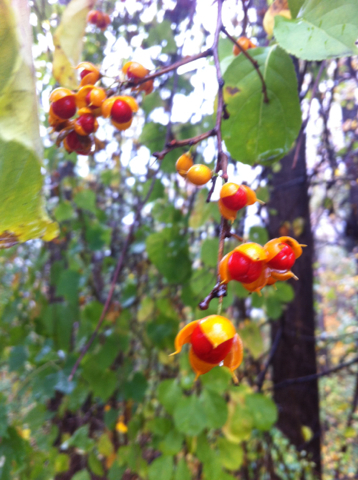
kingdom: Plantae
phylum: Tracheophyta
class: Magnoliopsida
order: Celastrales
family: Celastraceae
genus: Celastrus
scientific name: Celastrus orbiculatus
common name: Oriental bittersweet
